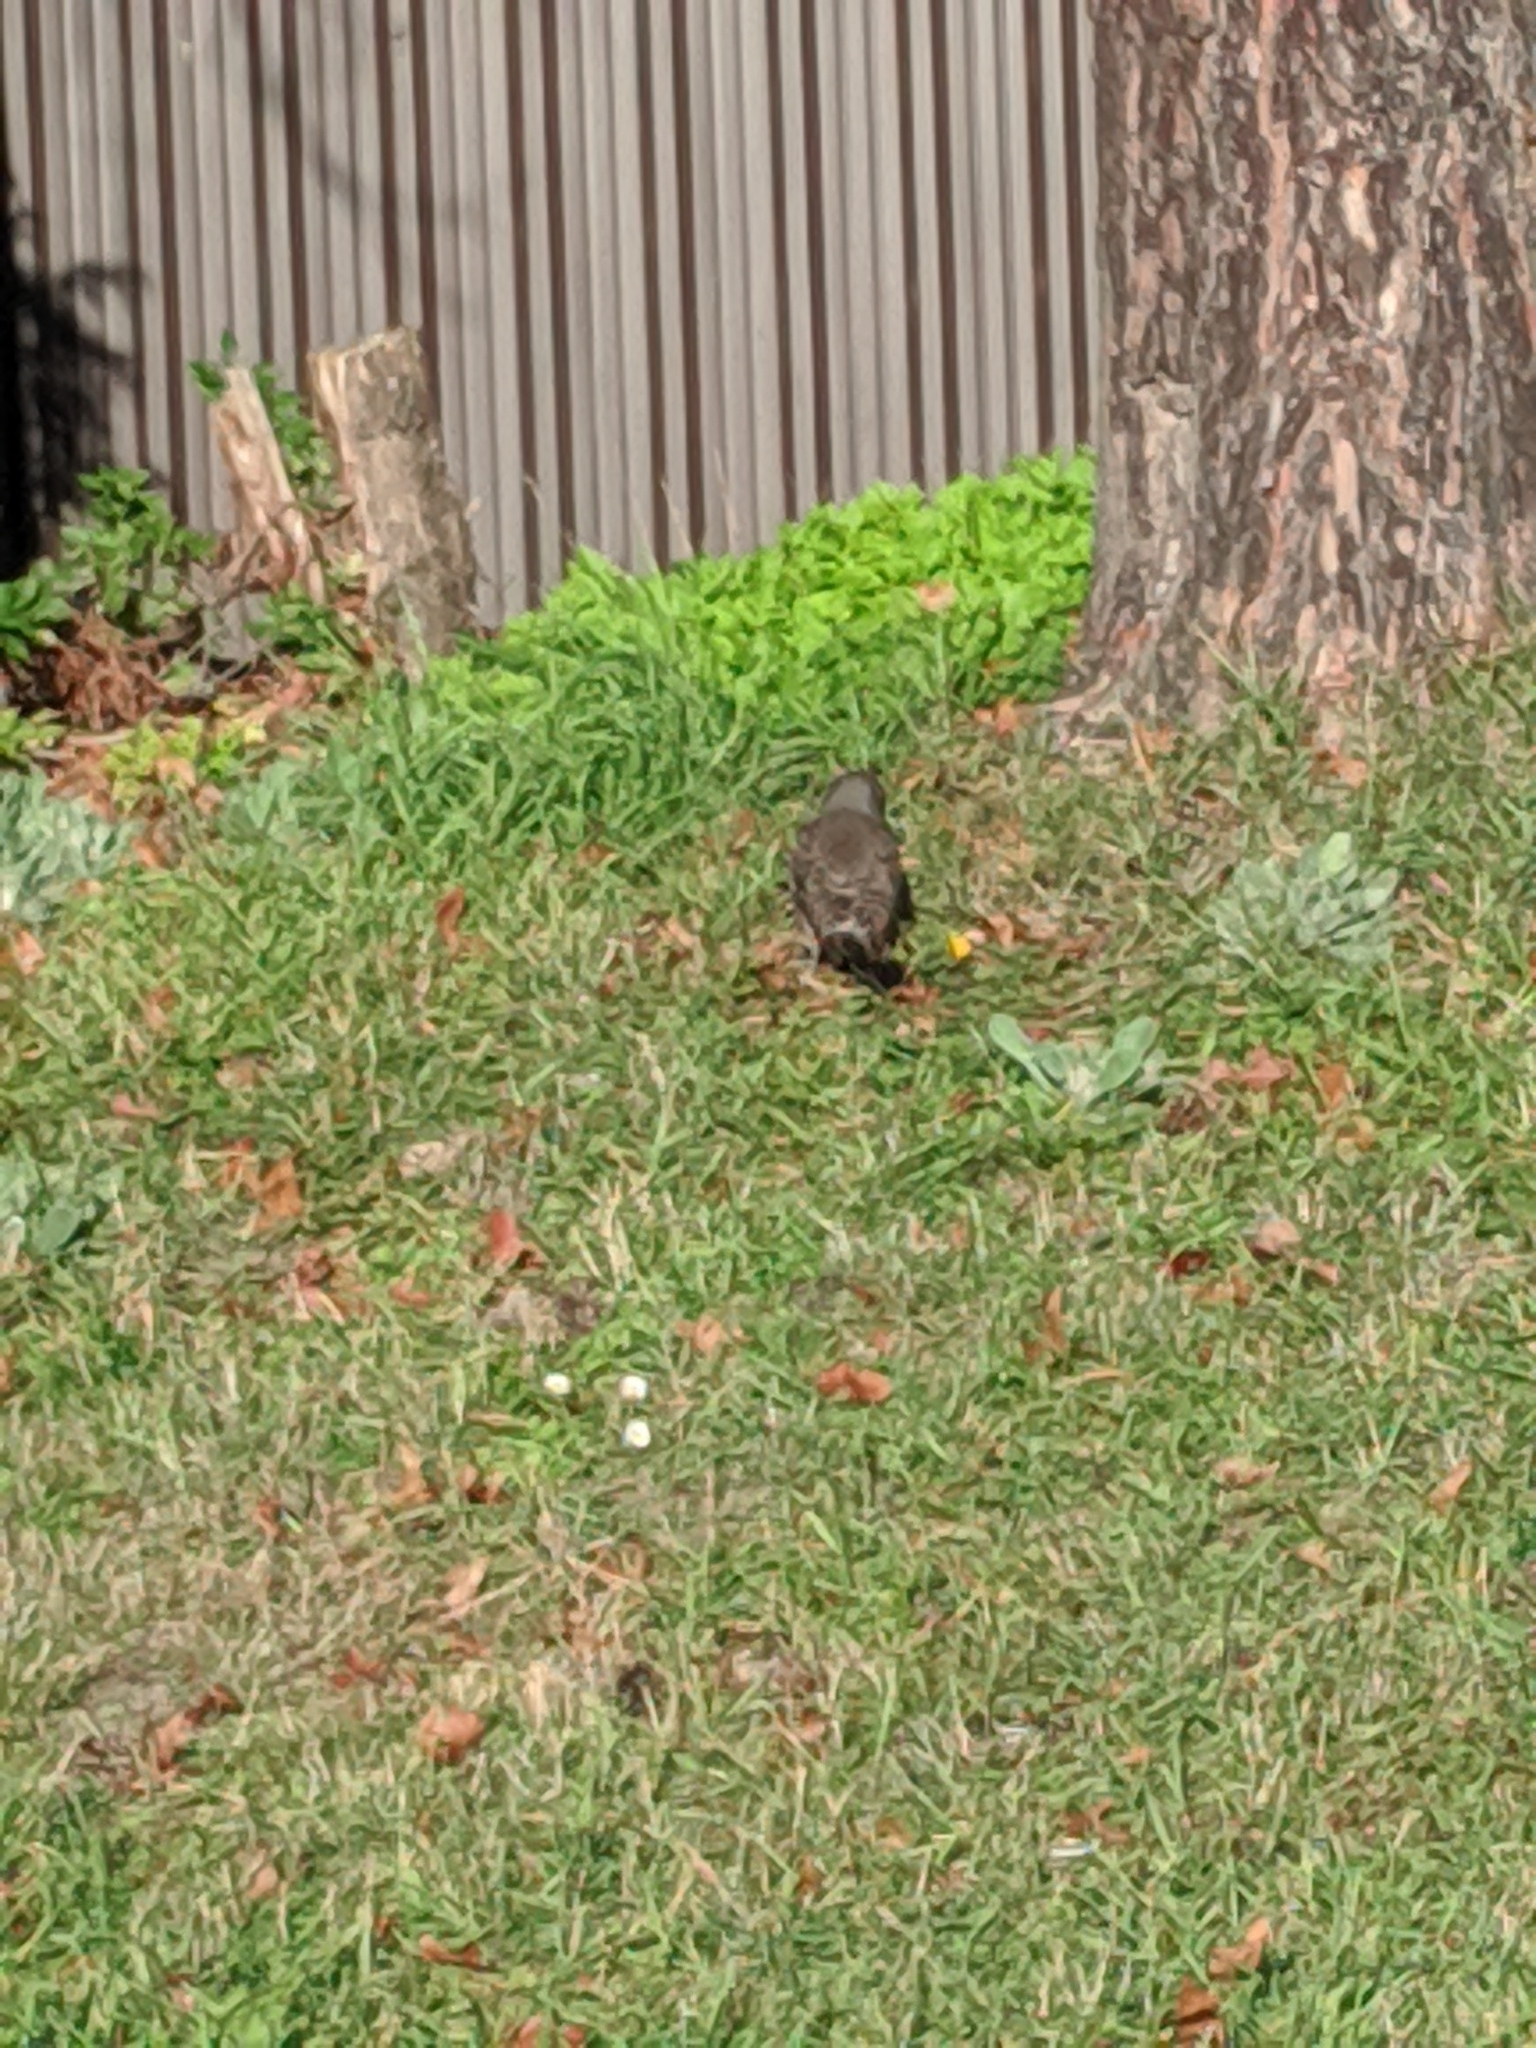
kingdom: Animalia
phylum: Chordata
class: Aves
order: Piciformes
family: Picidae
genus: Colaptes
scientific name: Colaptes auratus
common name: Northern flicker
